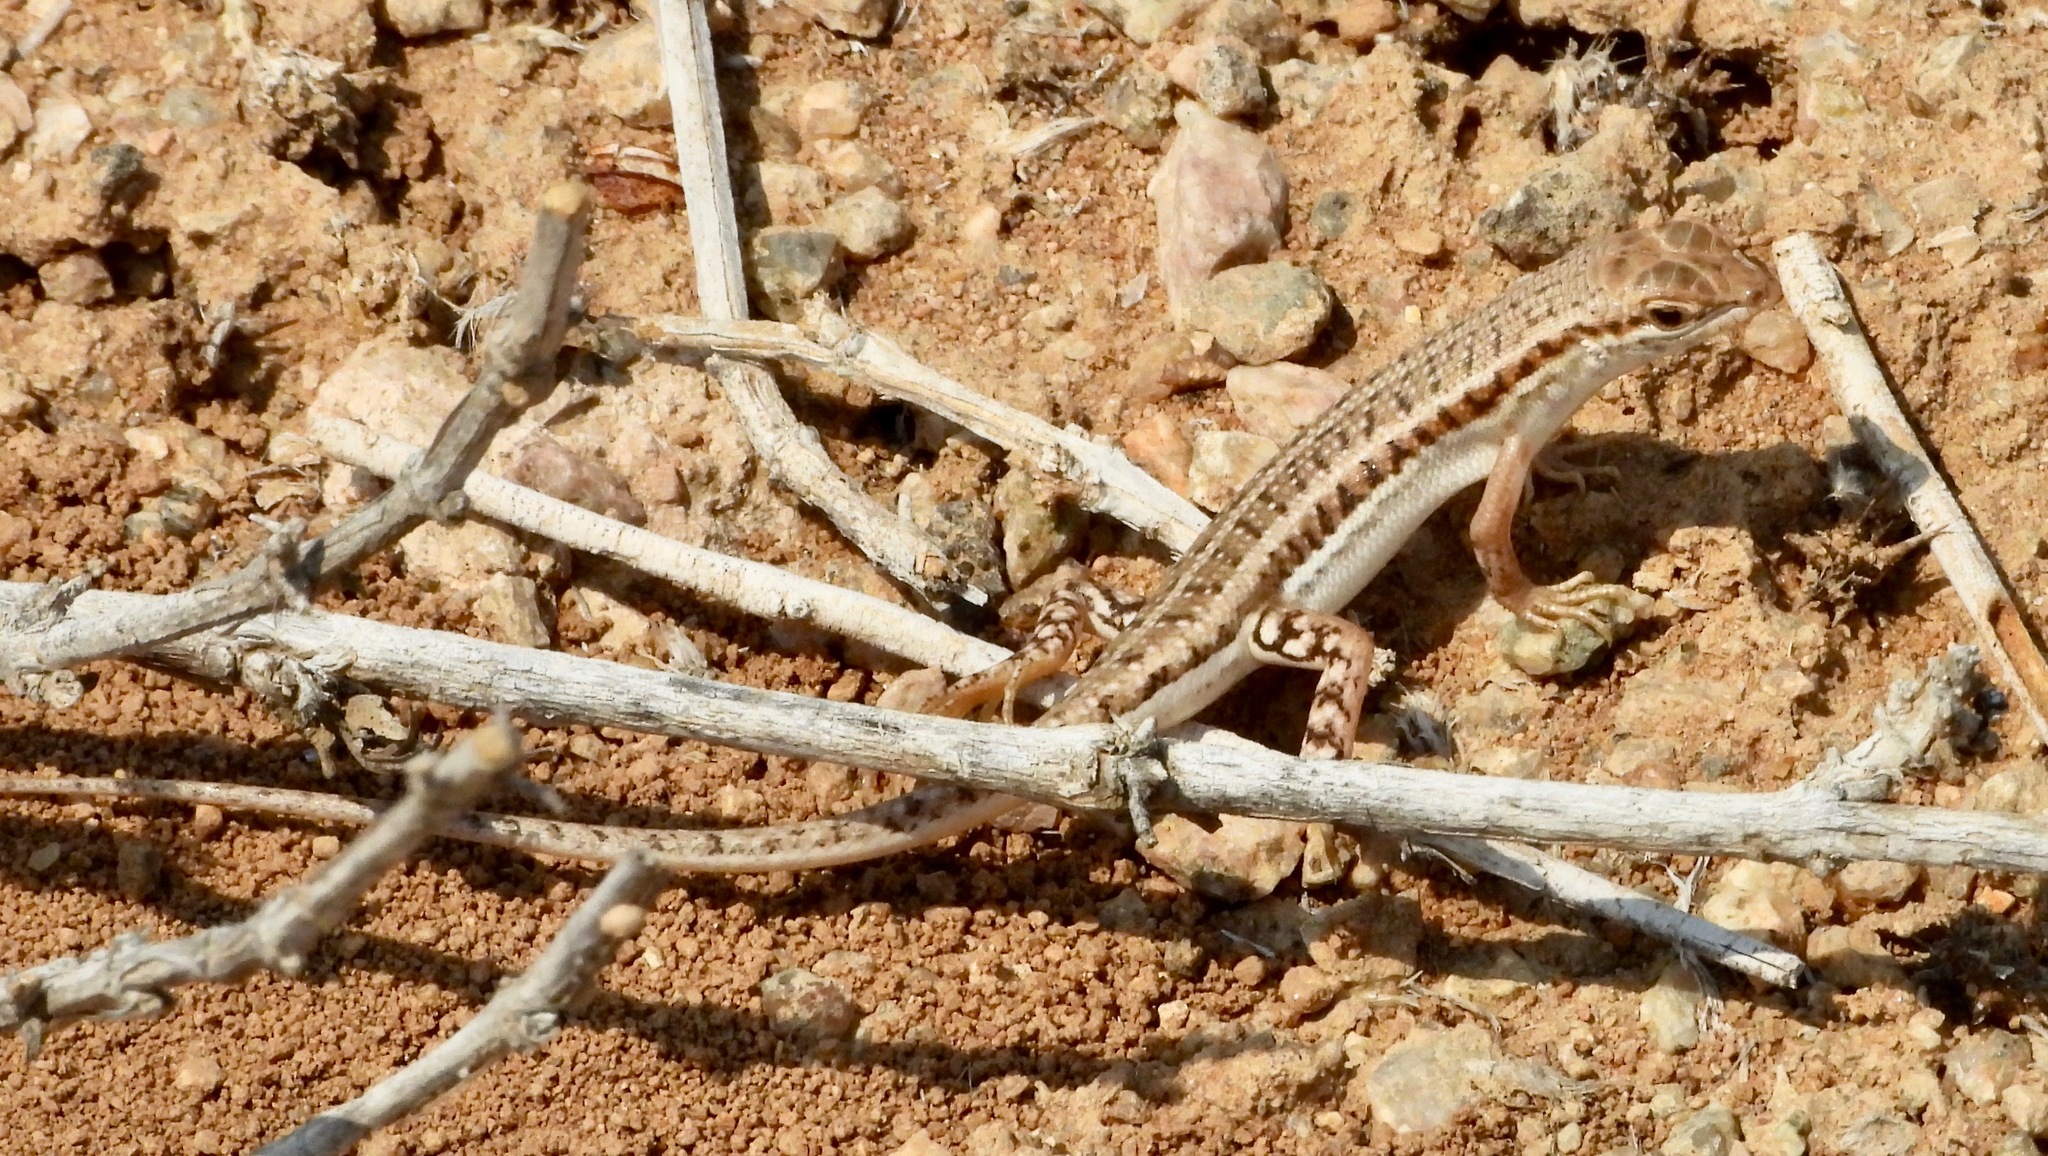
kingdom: Animalia
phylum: Chordata
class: Squamata
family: Scincidae
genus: Trachylepis
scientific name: Trachylepis acutilabris
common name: Sharp-lipped mabuya
